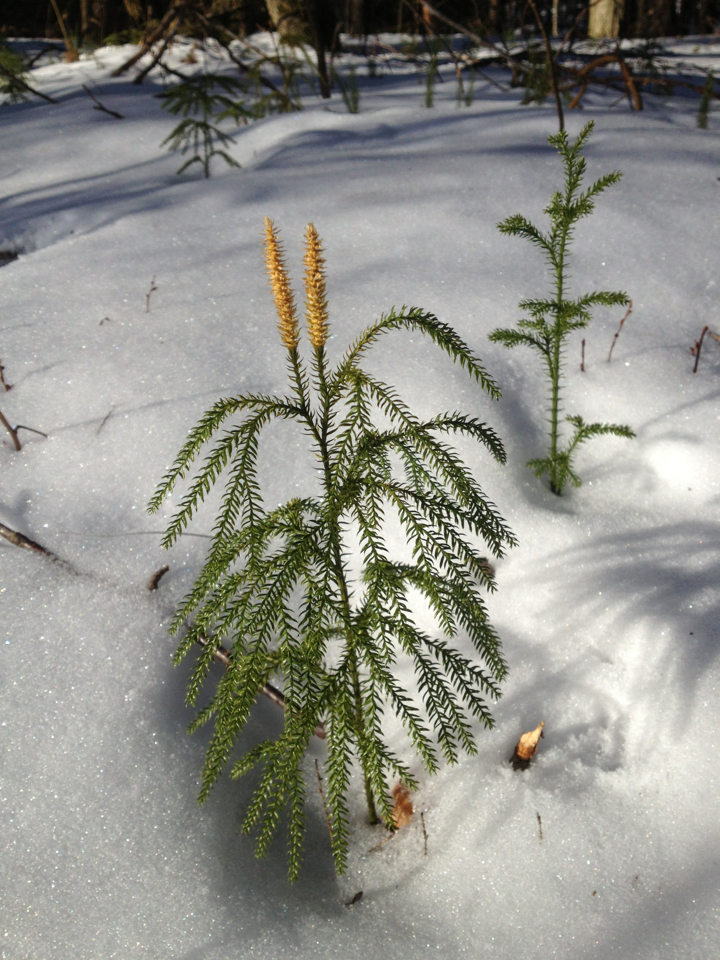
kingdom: Plantae
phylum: Tracheophyta
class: Lycopodiopsida
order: Lycopodiales
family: Lycopodiaceae
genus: Dendrolycopodium
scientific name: Dendrolycopodium obscurum
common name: Common ground-pine
